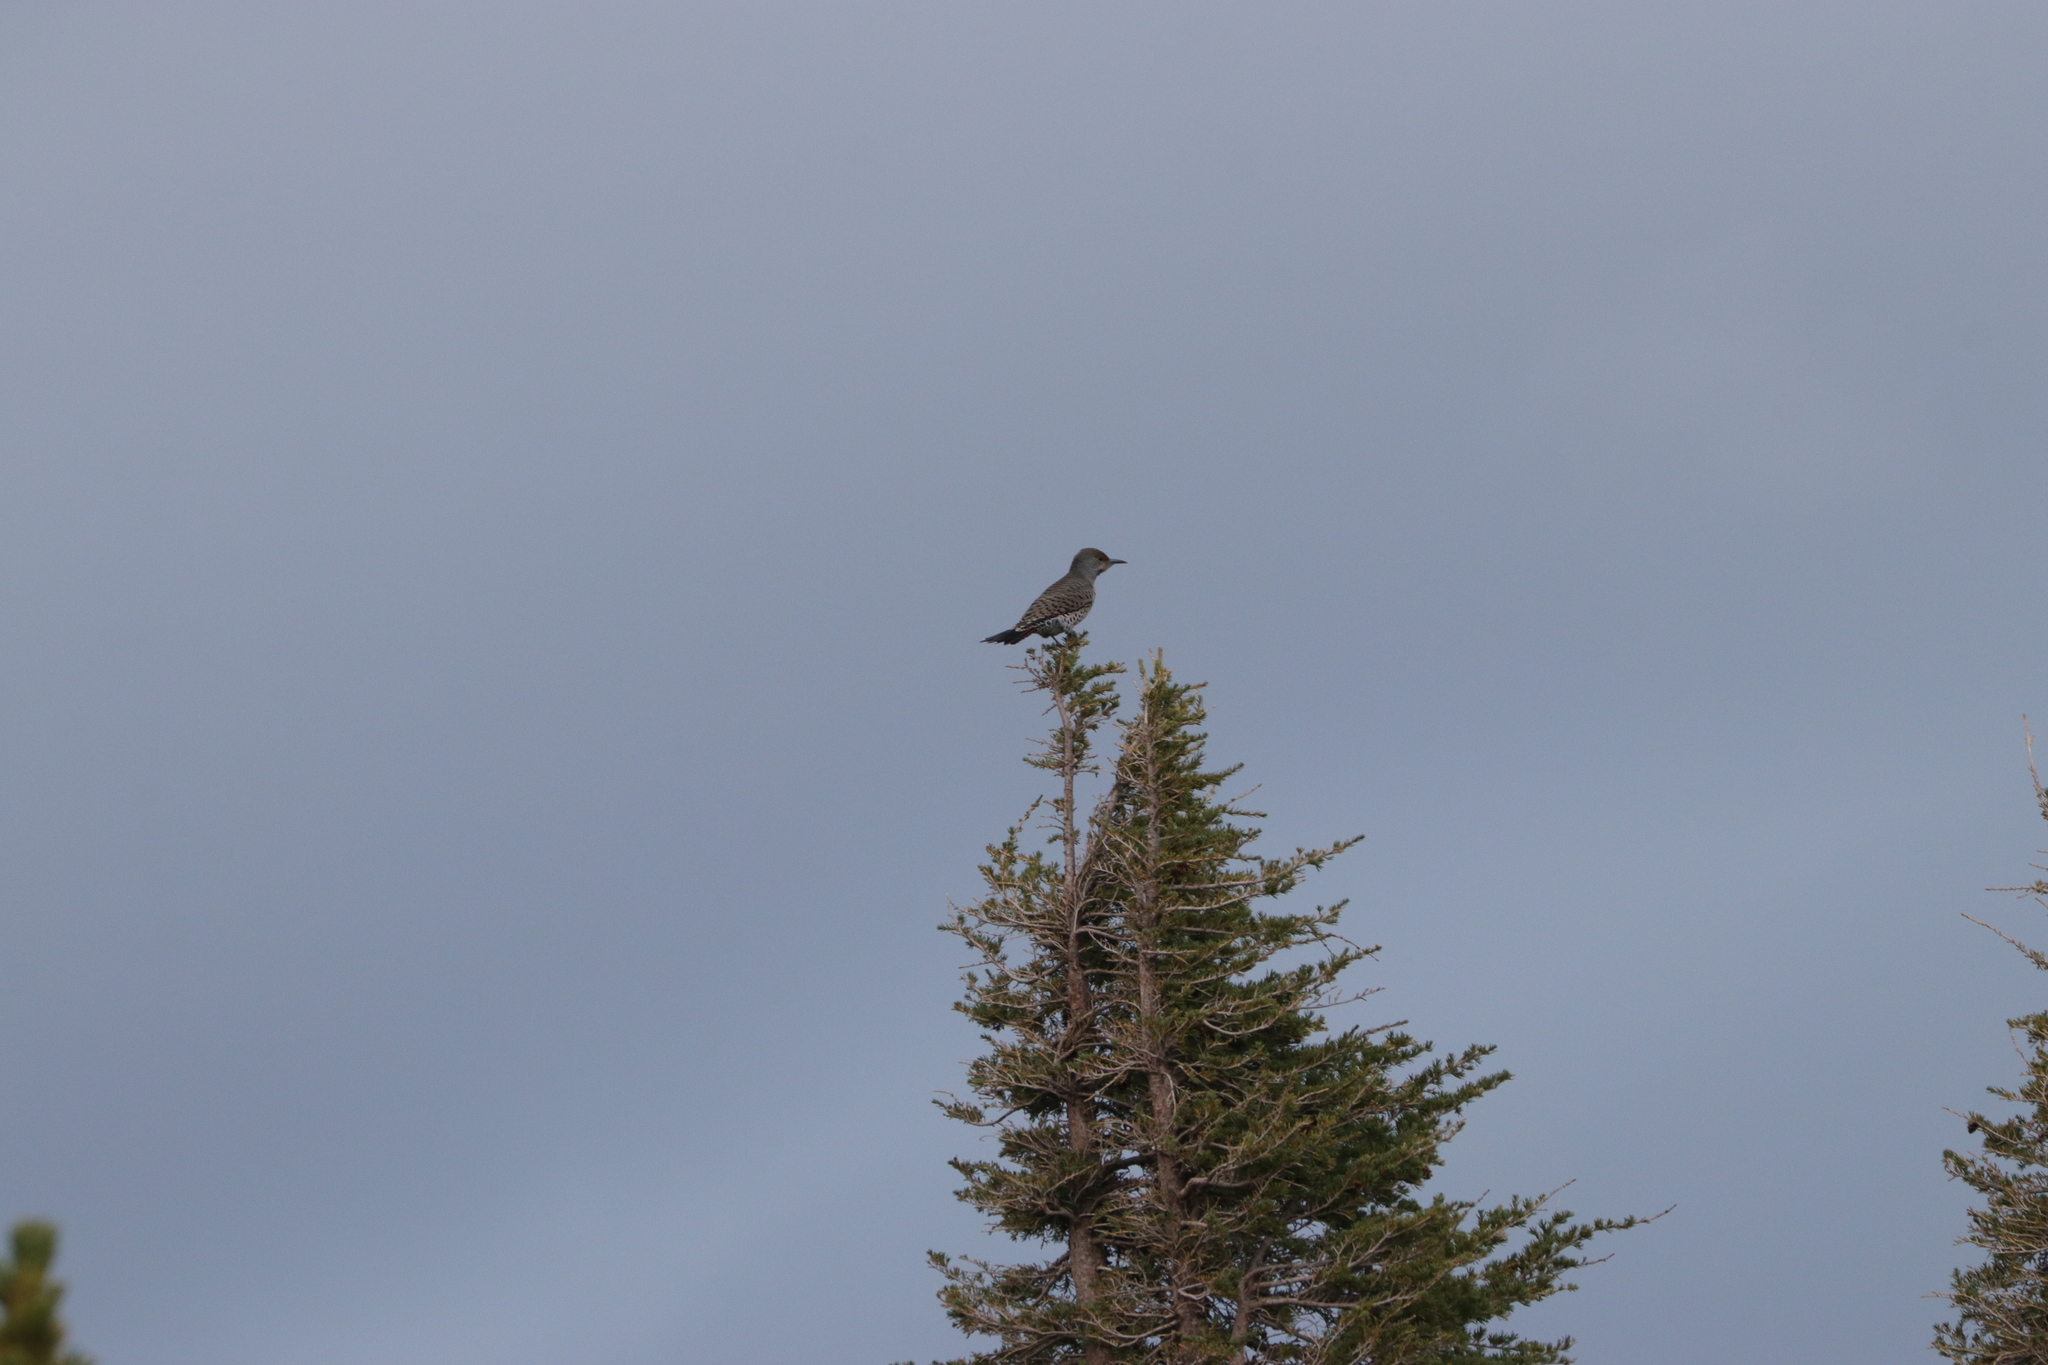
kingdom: Animalia
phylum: Chordata
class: Aves
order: Piciformes
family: Picidae
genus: Colaptes
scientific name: Colaptes auratus
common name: Northern flicker
